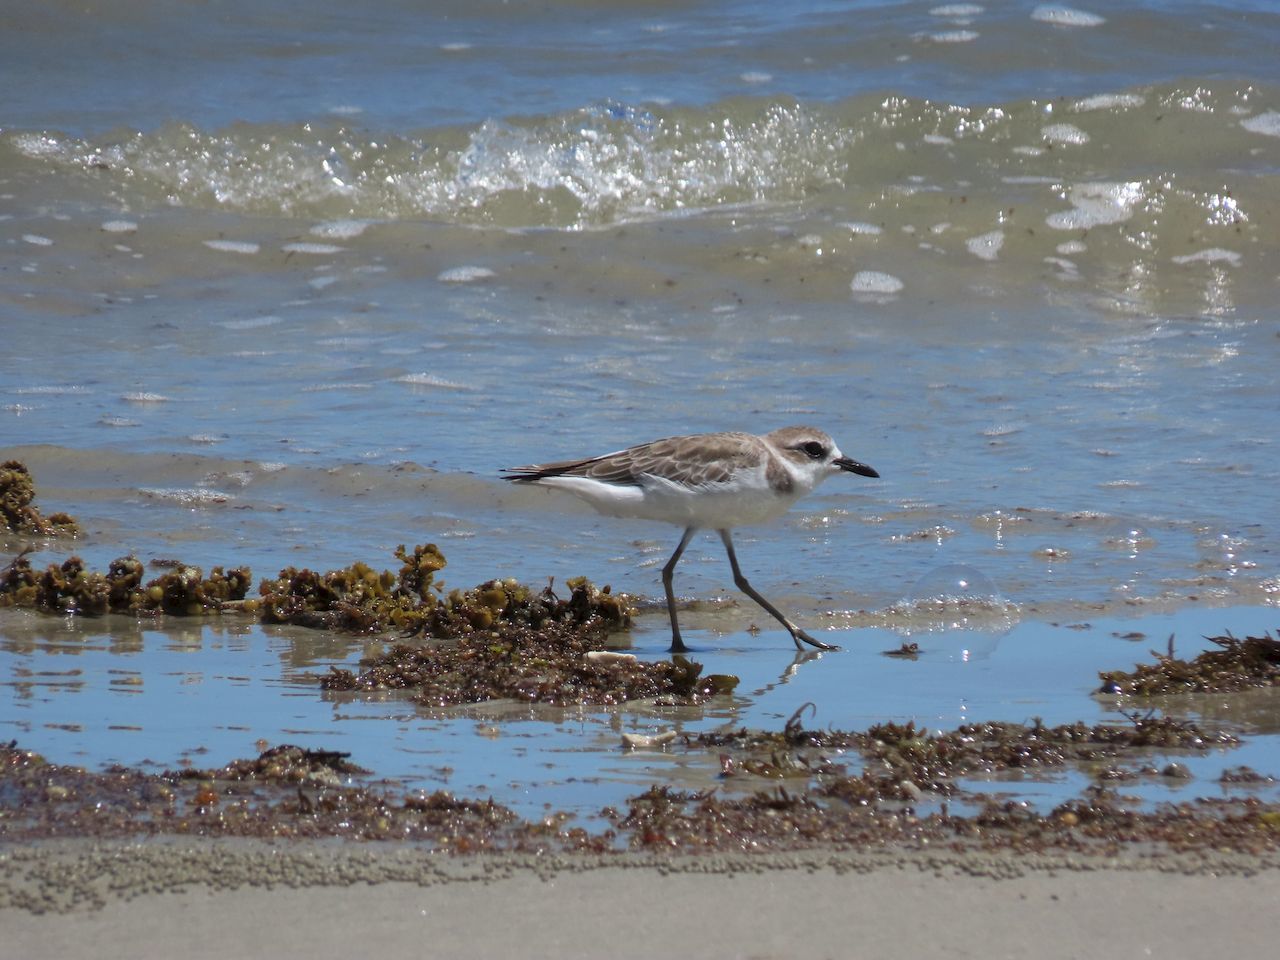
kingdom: Animalia
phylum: Chordata
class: Aves
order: Charadriiformes
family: Charadriidae
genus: Charadrius
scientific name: Charadrius leschenaultii
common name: Greater sand plover
